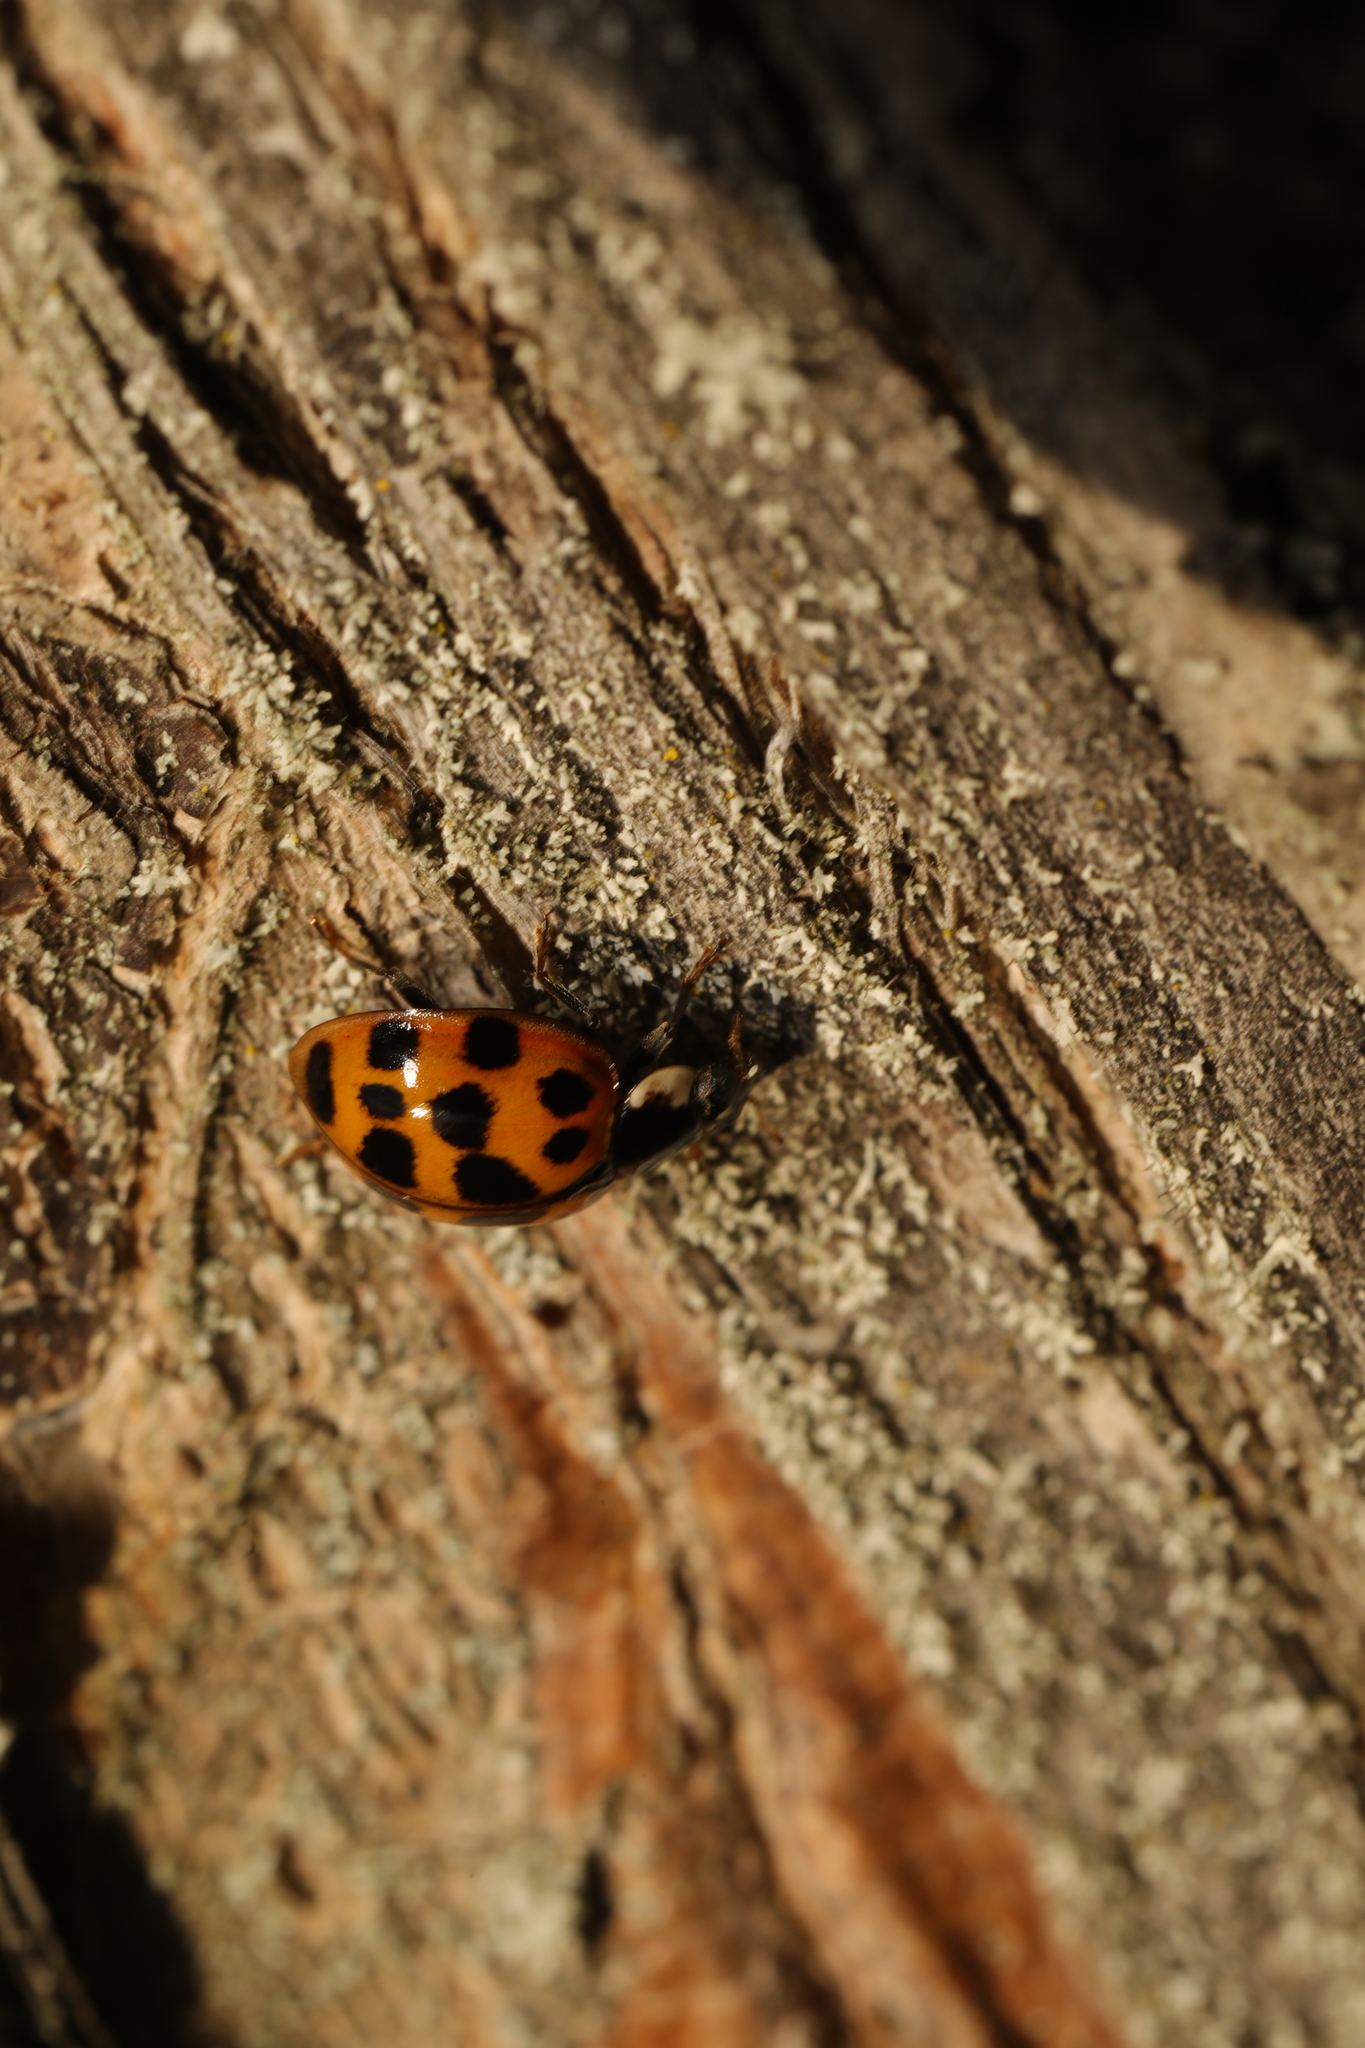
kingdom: Animalia
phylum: Arthropoda
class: Insecta
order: Coleoptera
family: Coccinellidae
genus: Harmonia
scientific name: Harmonia axyridis
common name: Harlequin ladybird
